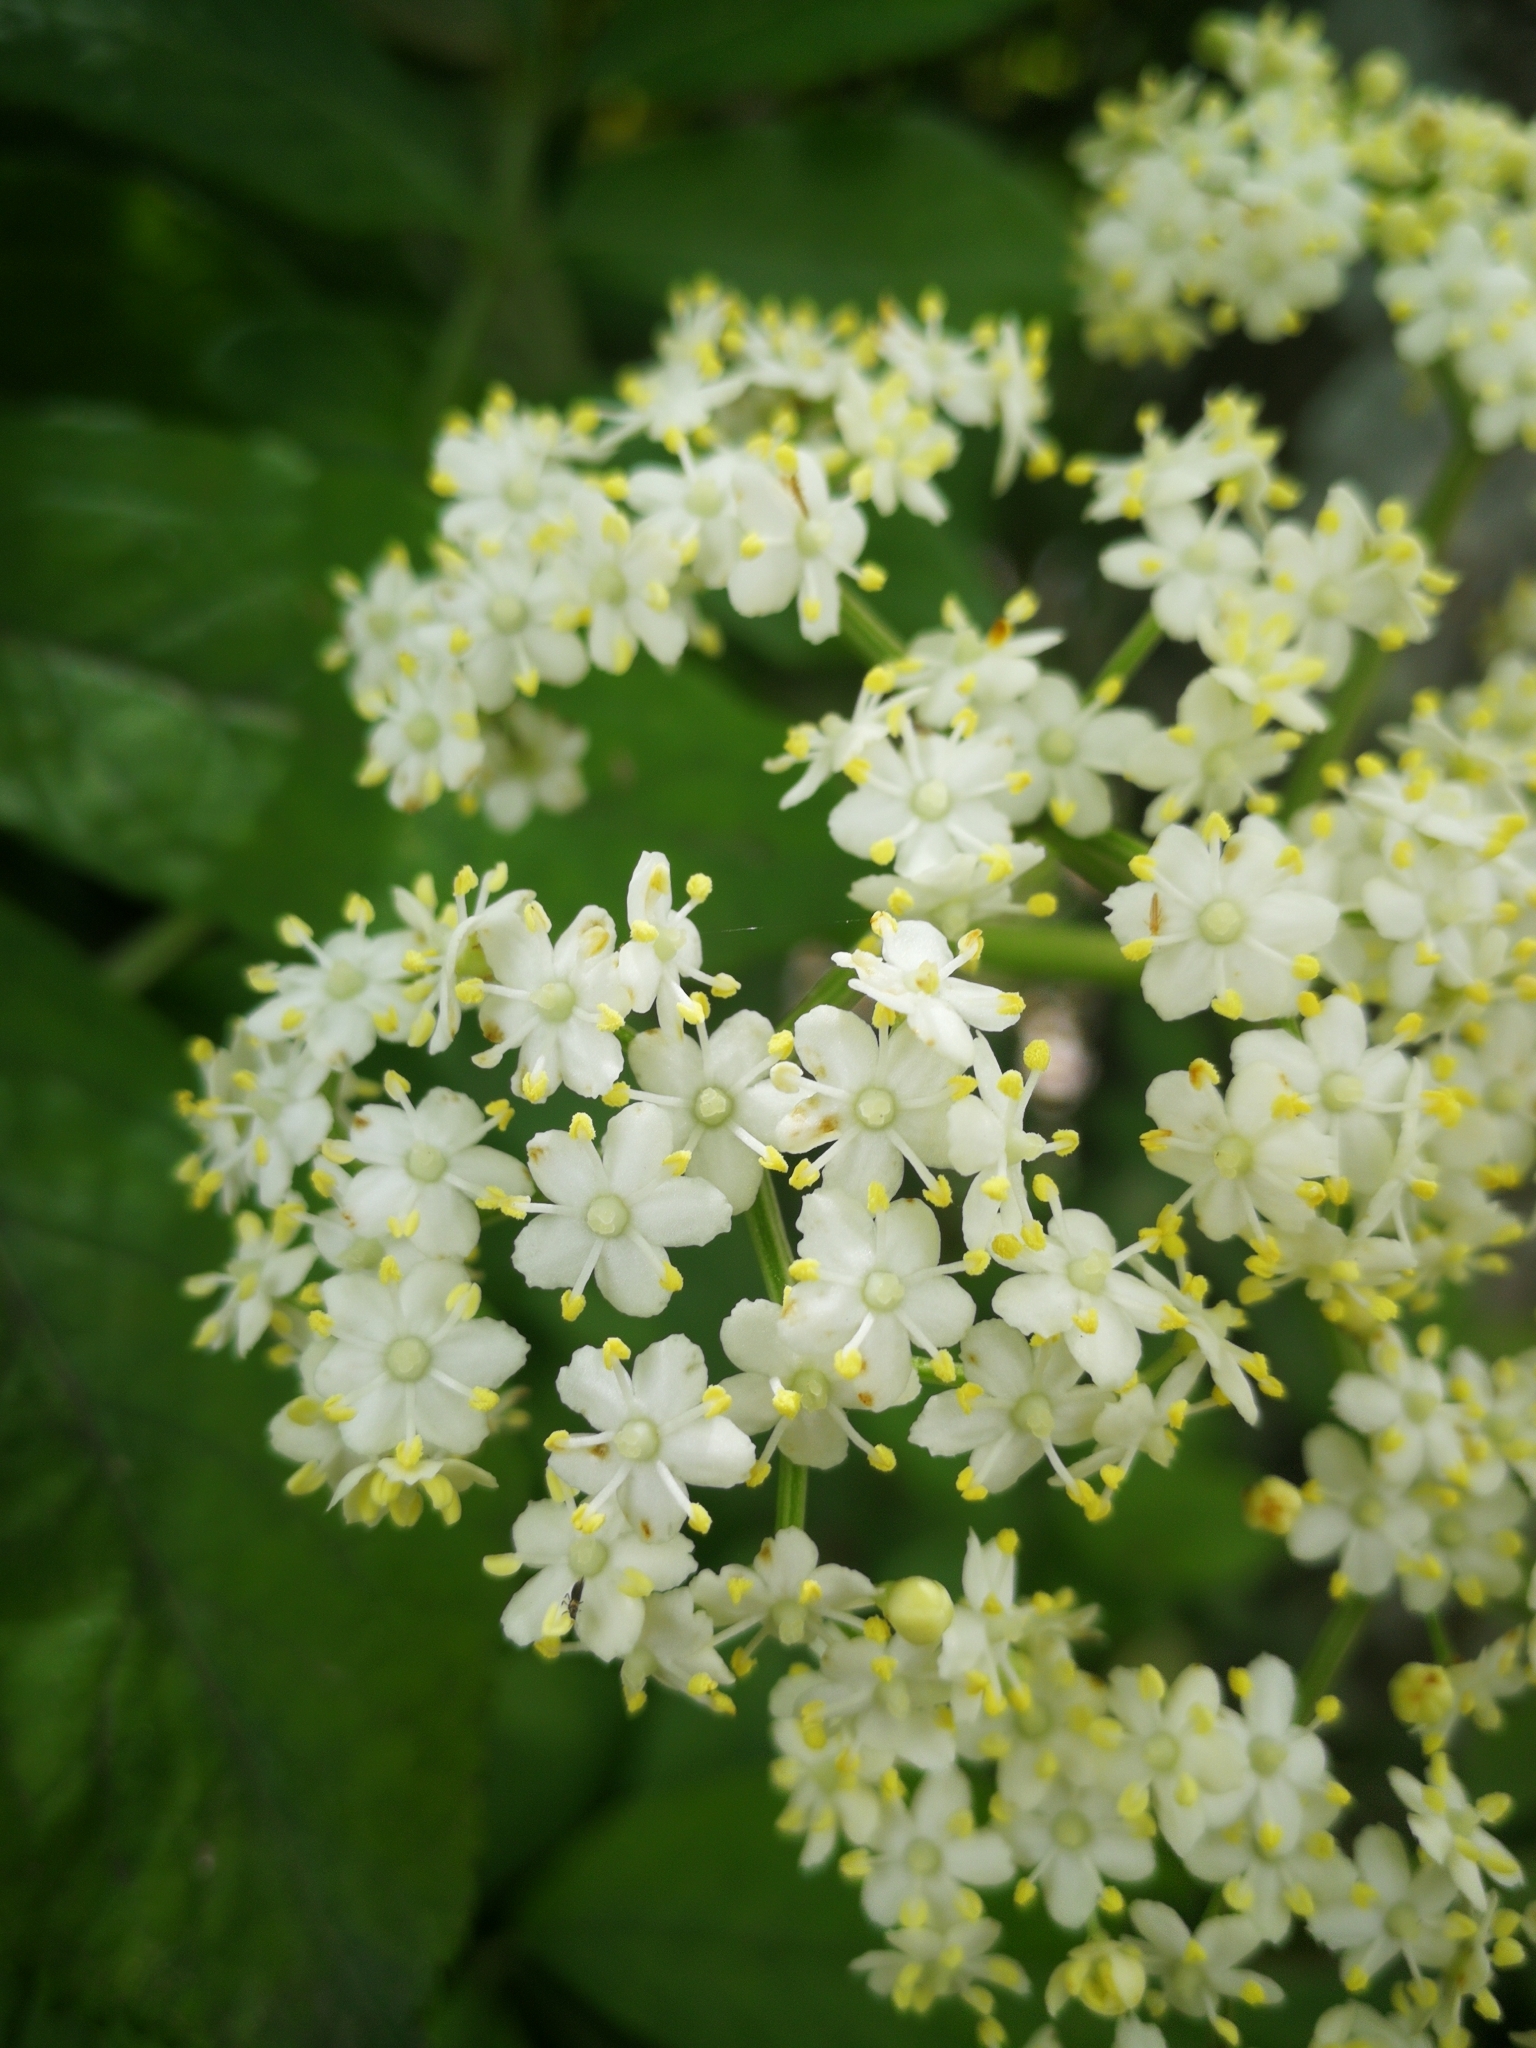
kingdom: Plantae
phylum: Tracheophyta
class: Magnoliopsida
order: Dipsacales
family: Viburnaceae
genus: Sambucus
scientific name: Sambucus peruviana
